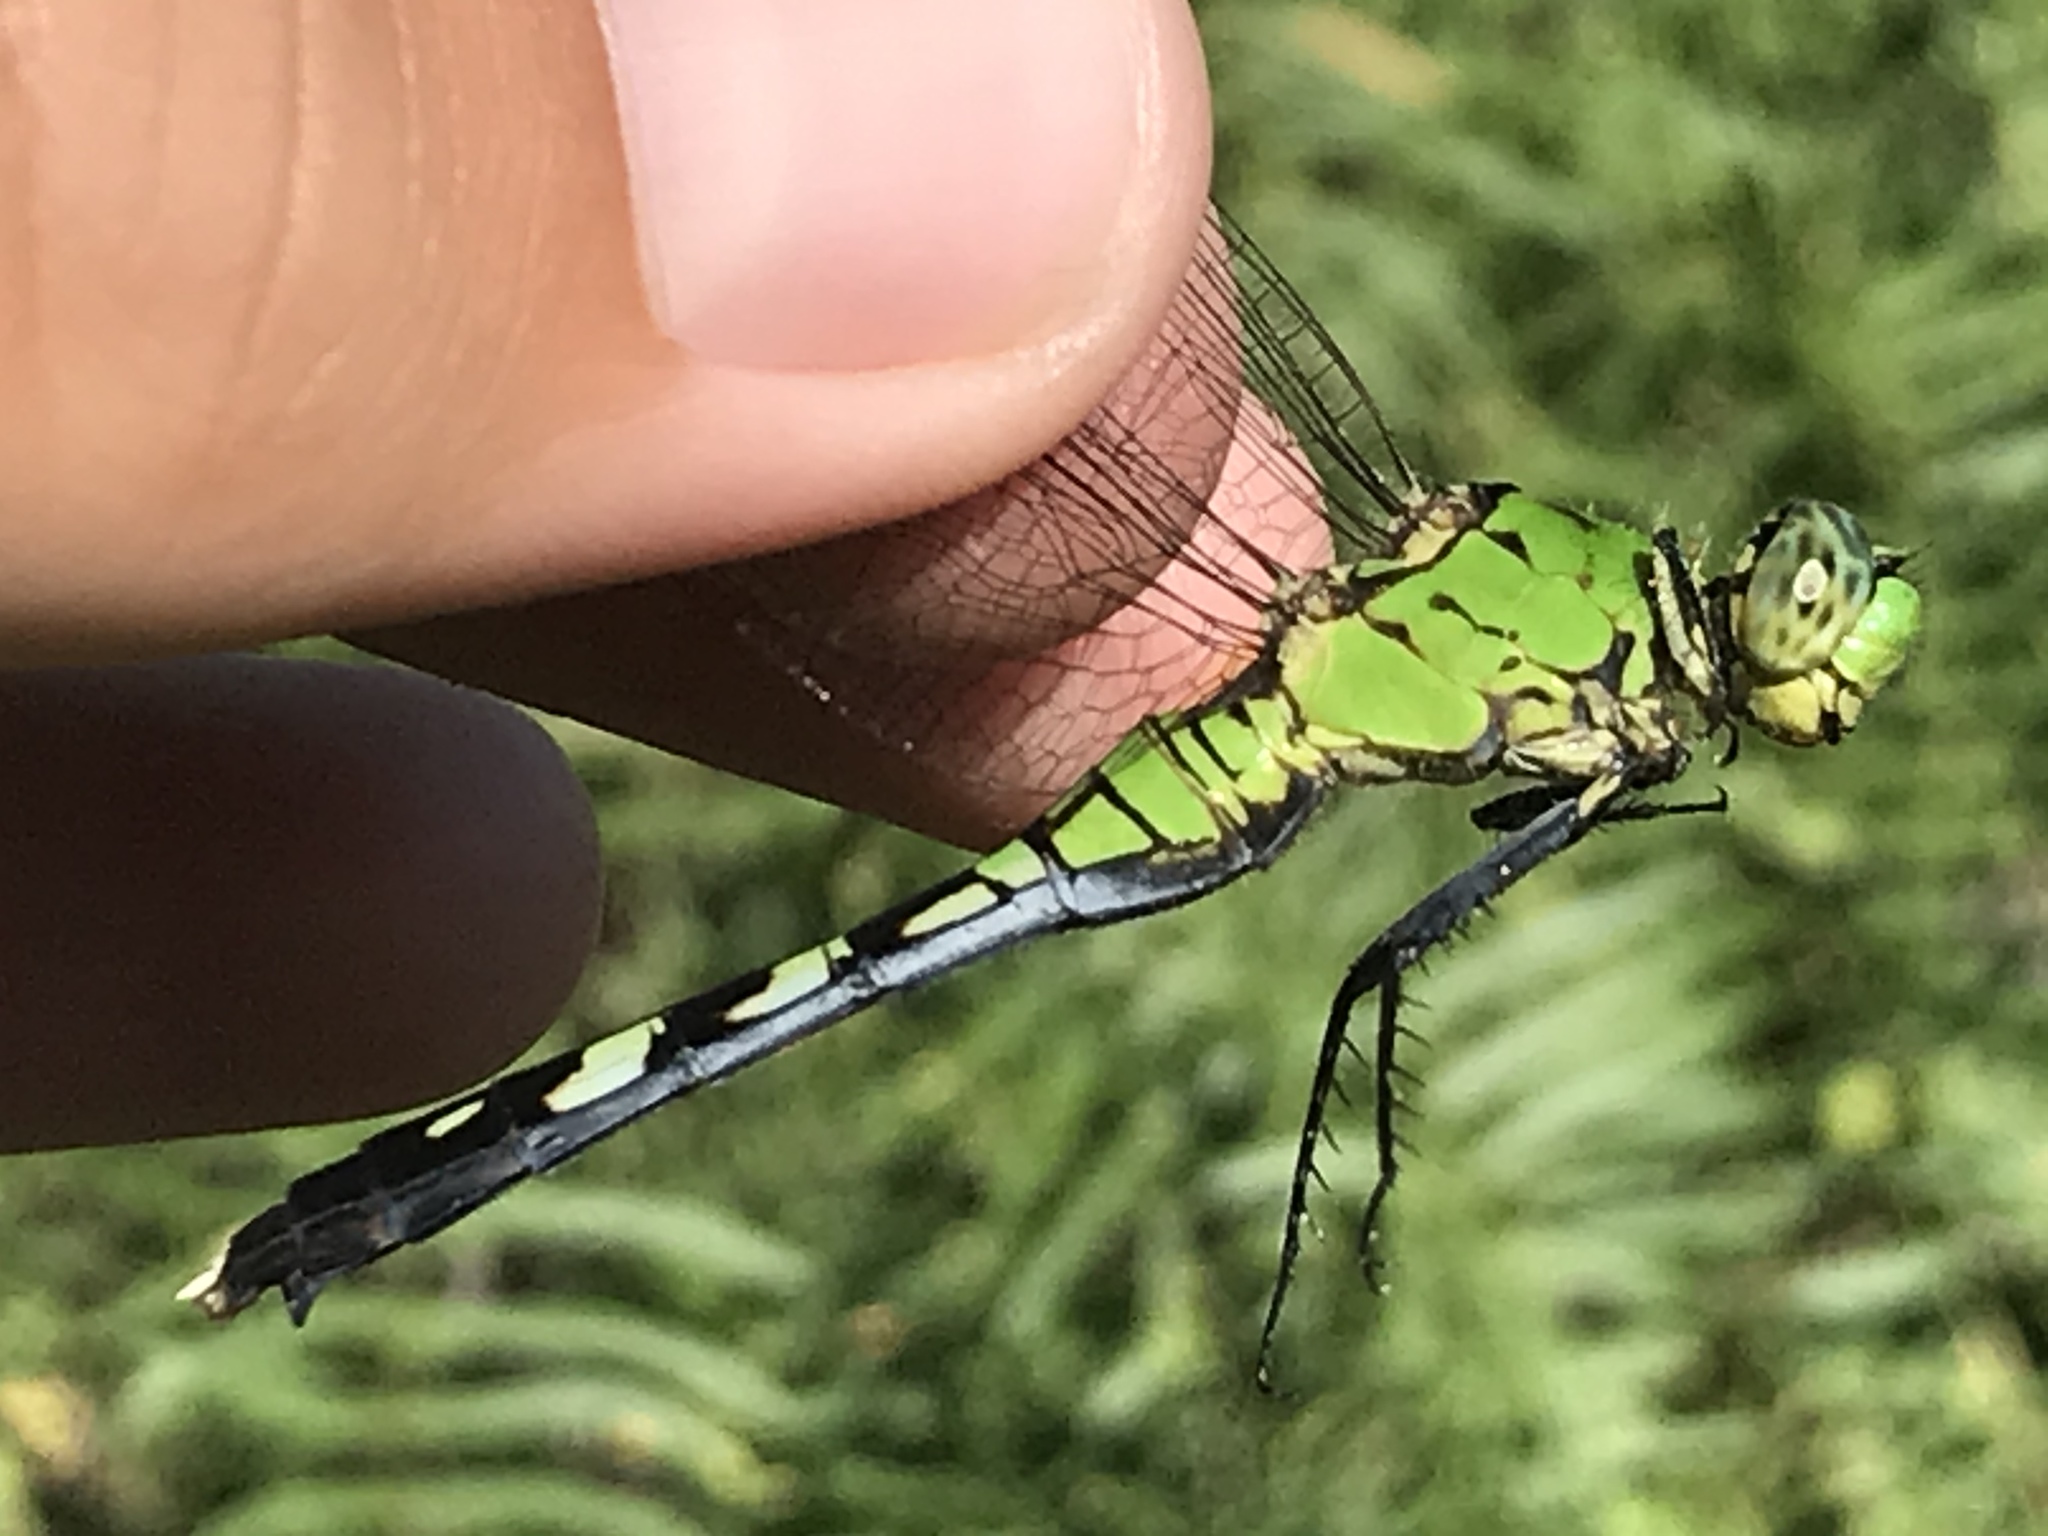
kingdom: Animalia
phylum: Arthropoda
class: Insecta
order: Odonata
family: Libellulidae
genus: Erythemis
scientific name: Erythemis simplicicollis
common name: Eastern pondhawk
